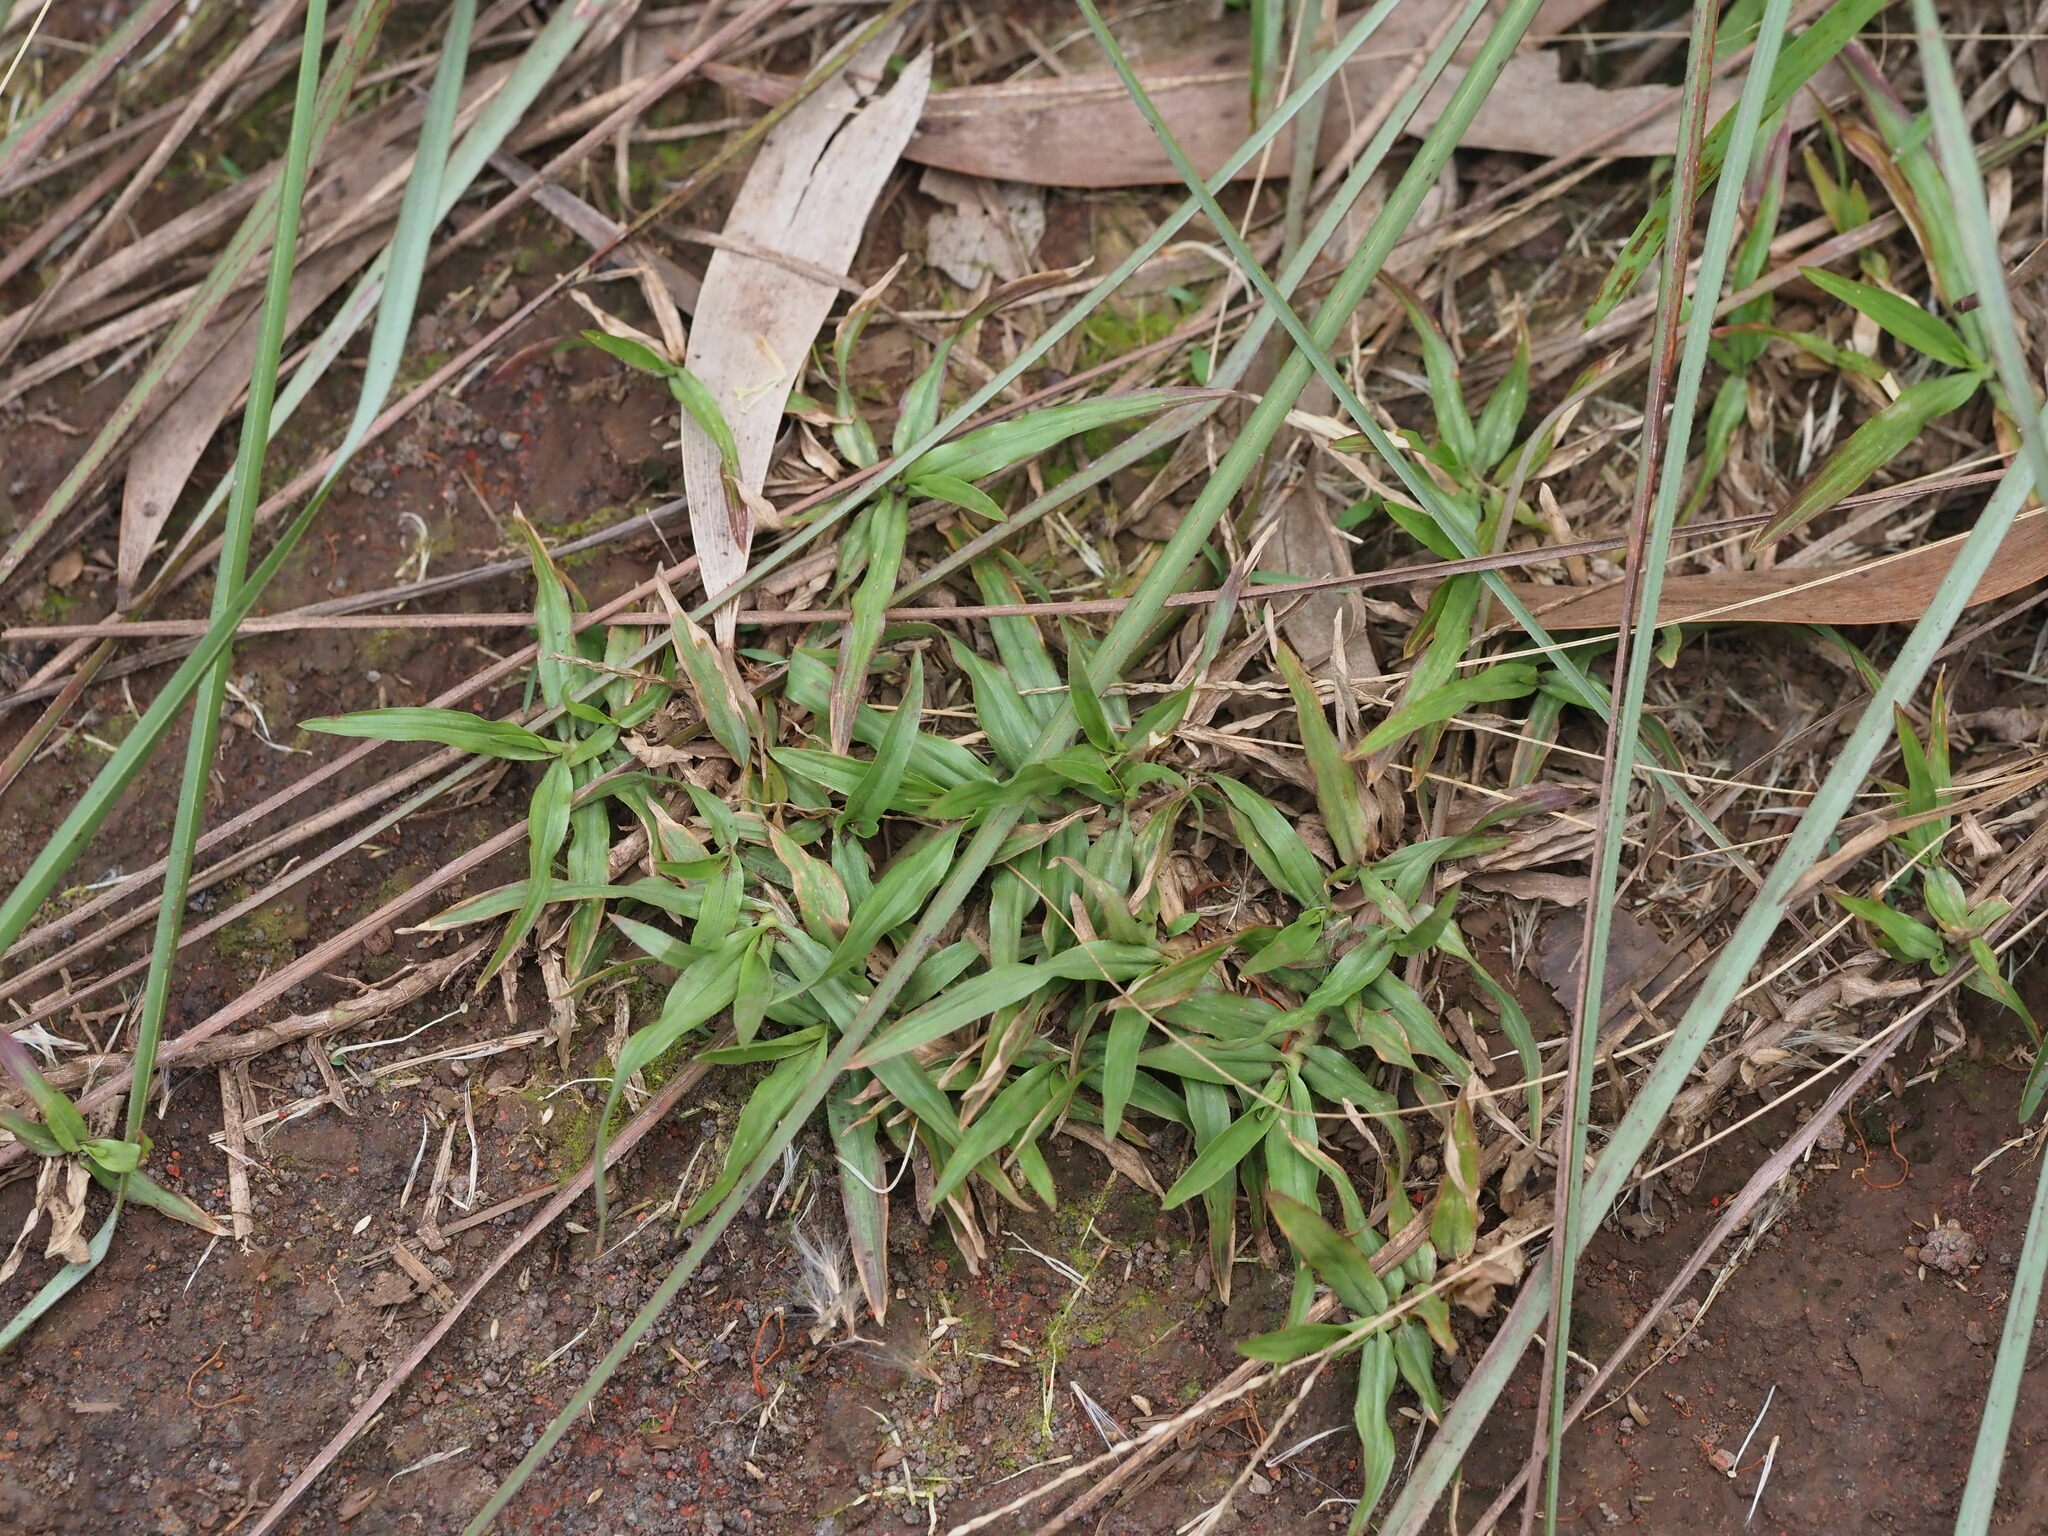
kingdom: Plantae
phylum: Tracheophyta
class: Liliopsida
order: Poales
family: Poaceae
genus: Chrysopogon
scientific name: Chrysopogon aciculatus
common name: Pilipiliula
